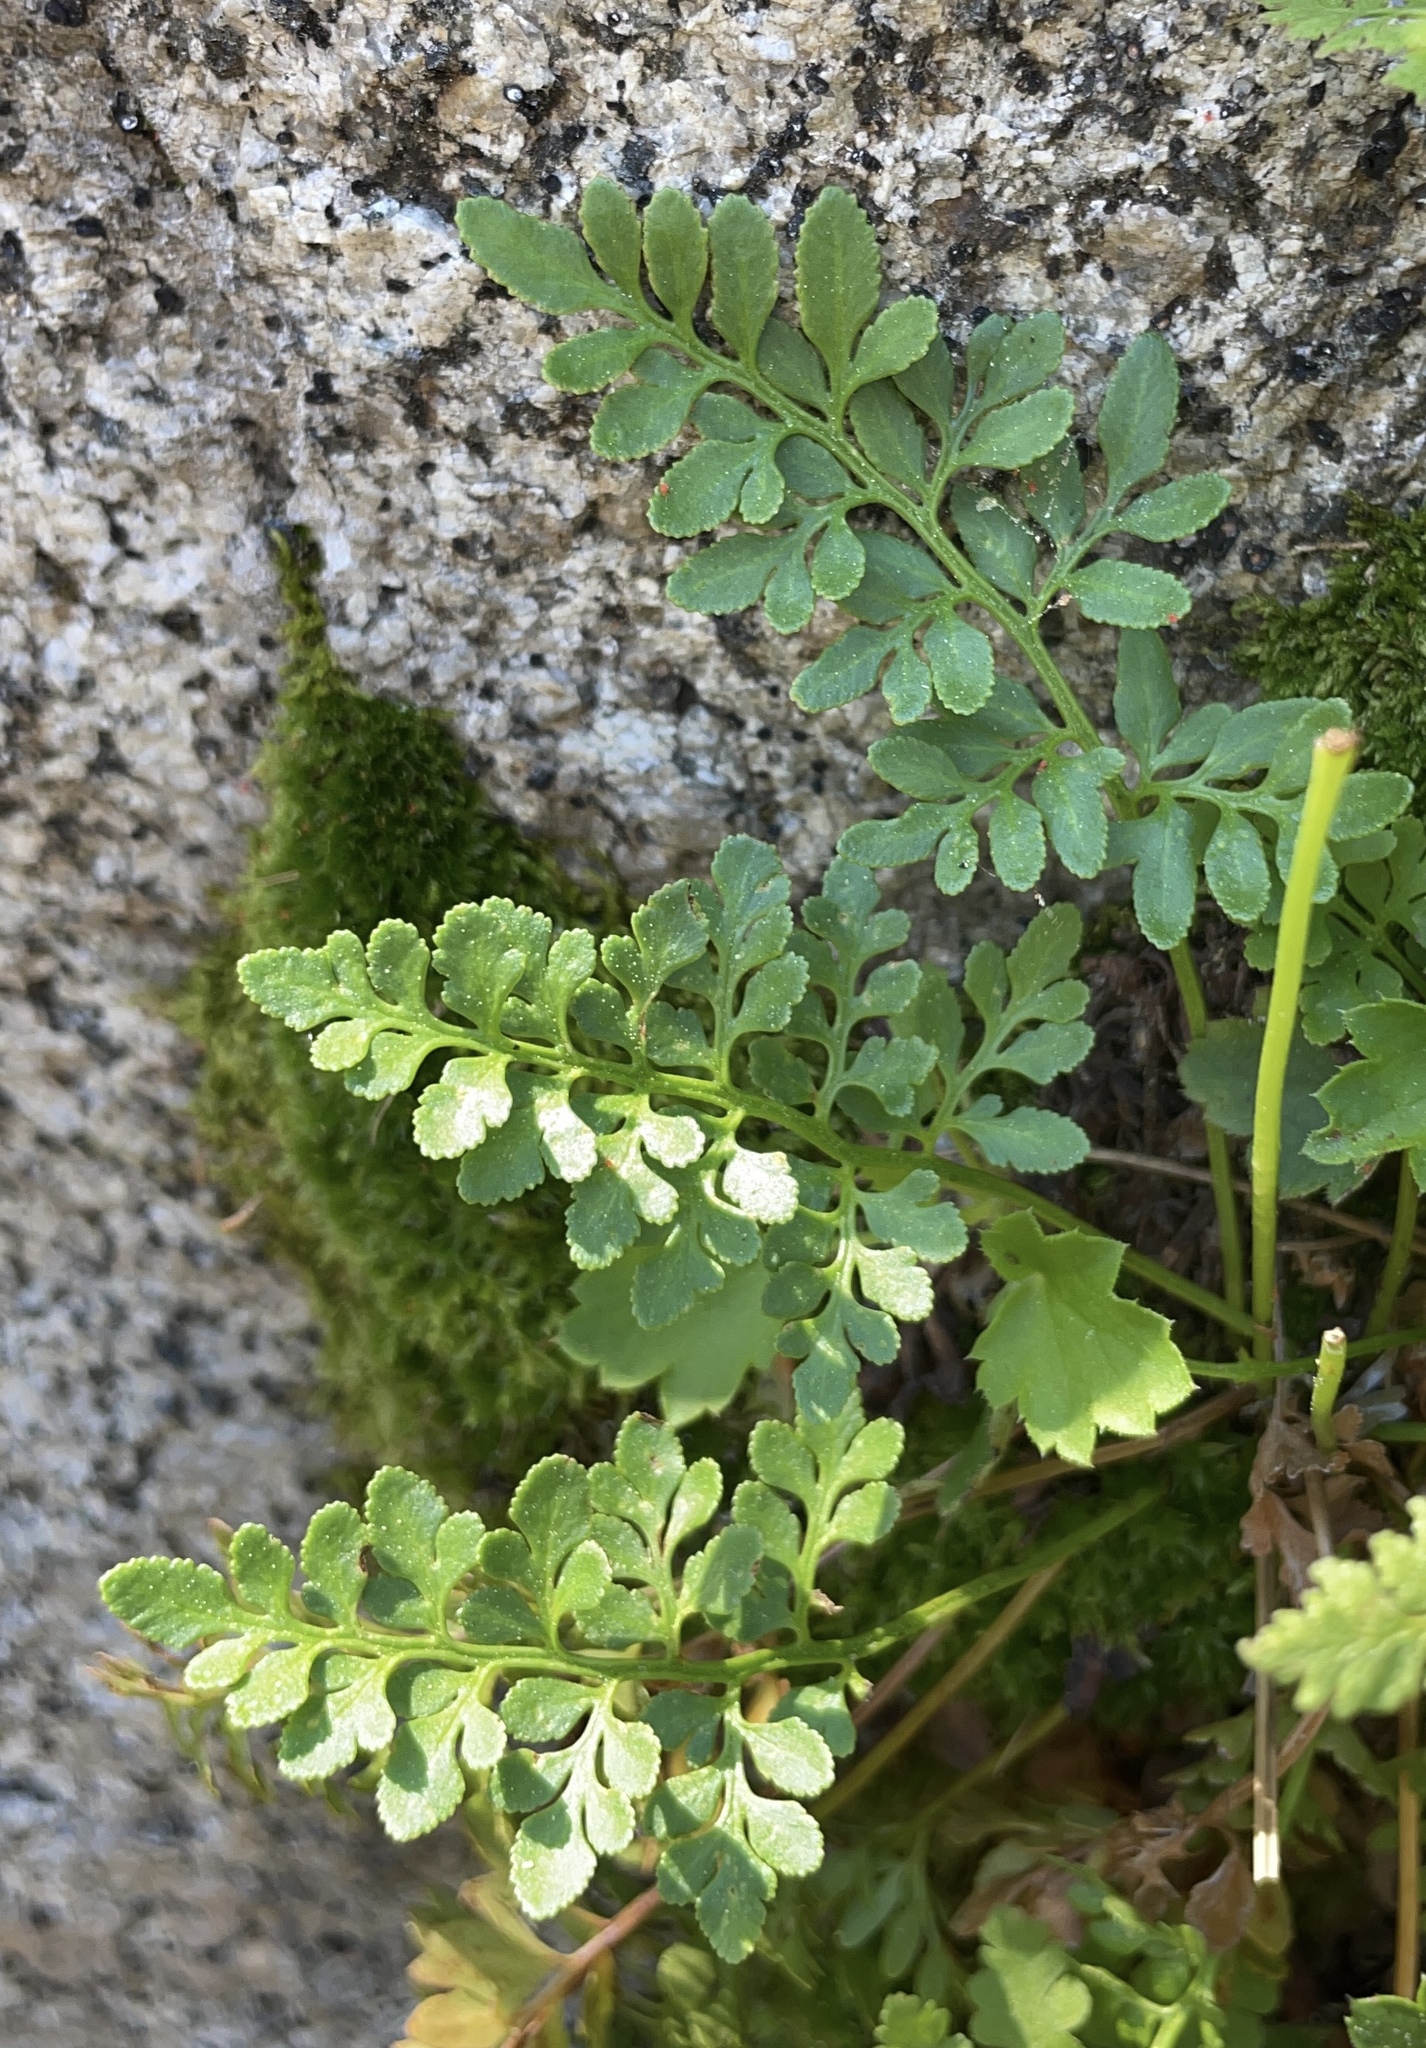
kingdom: Plantae
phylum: Tracheophyta
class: Polypodiopsida
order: Polypodiales
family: Pteridaceae
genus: Cryptogramma
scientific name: Cryptogramma acrostichoides
